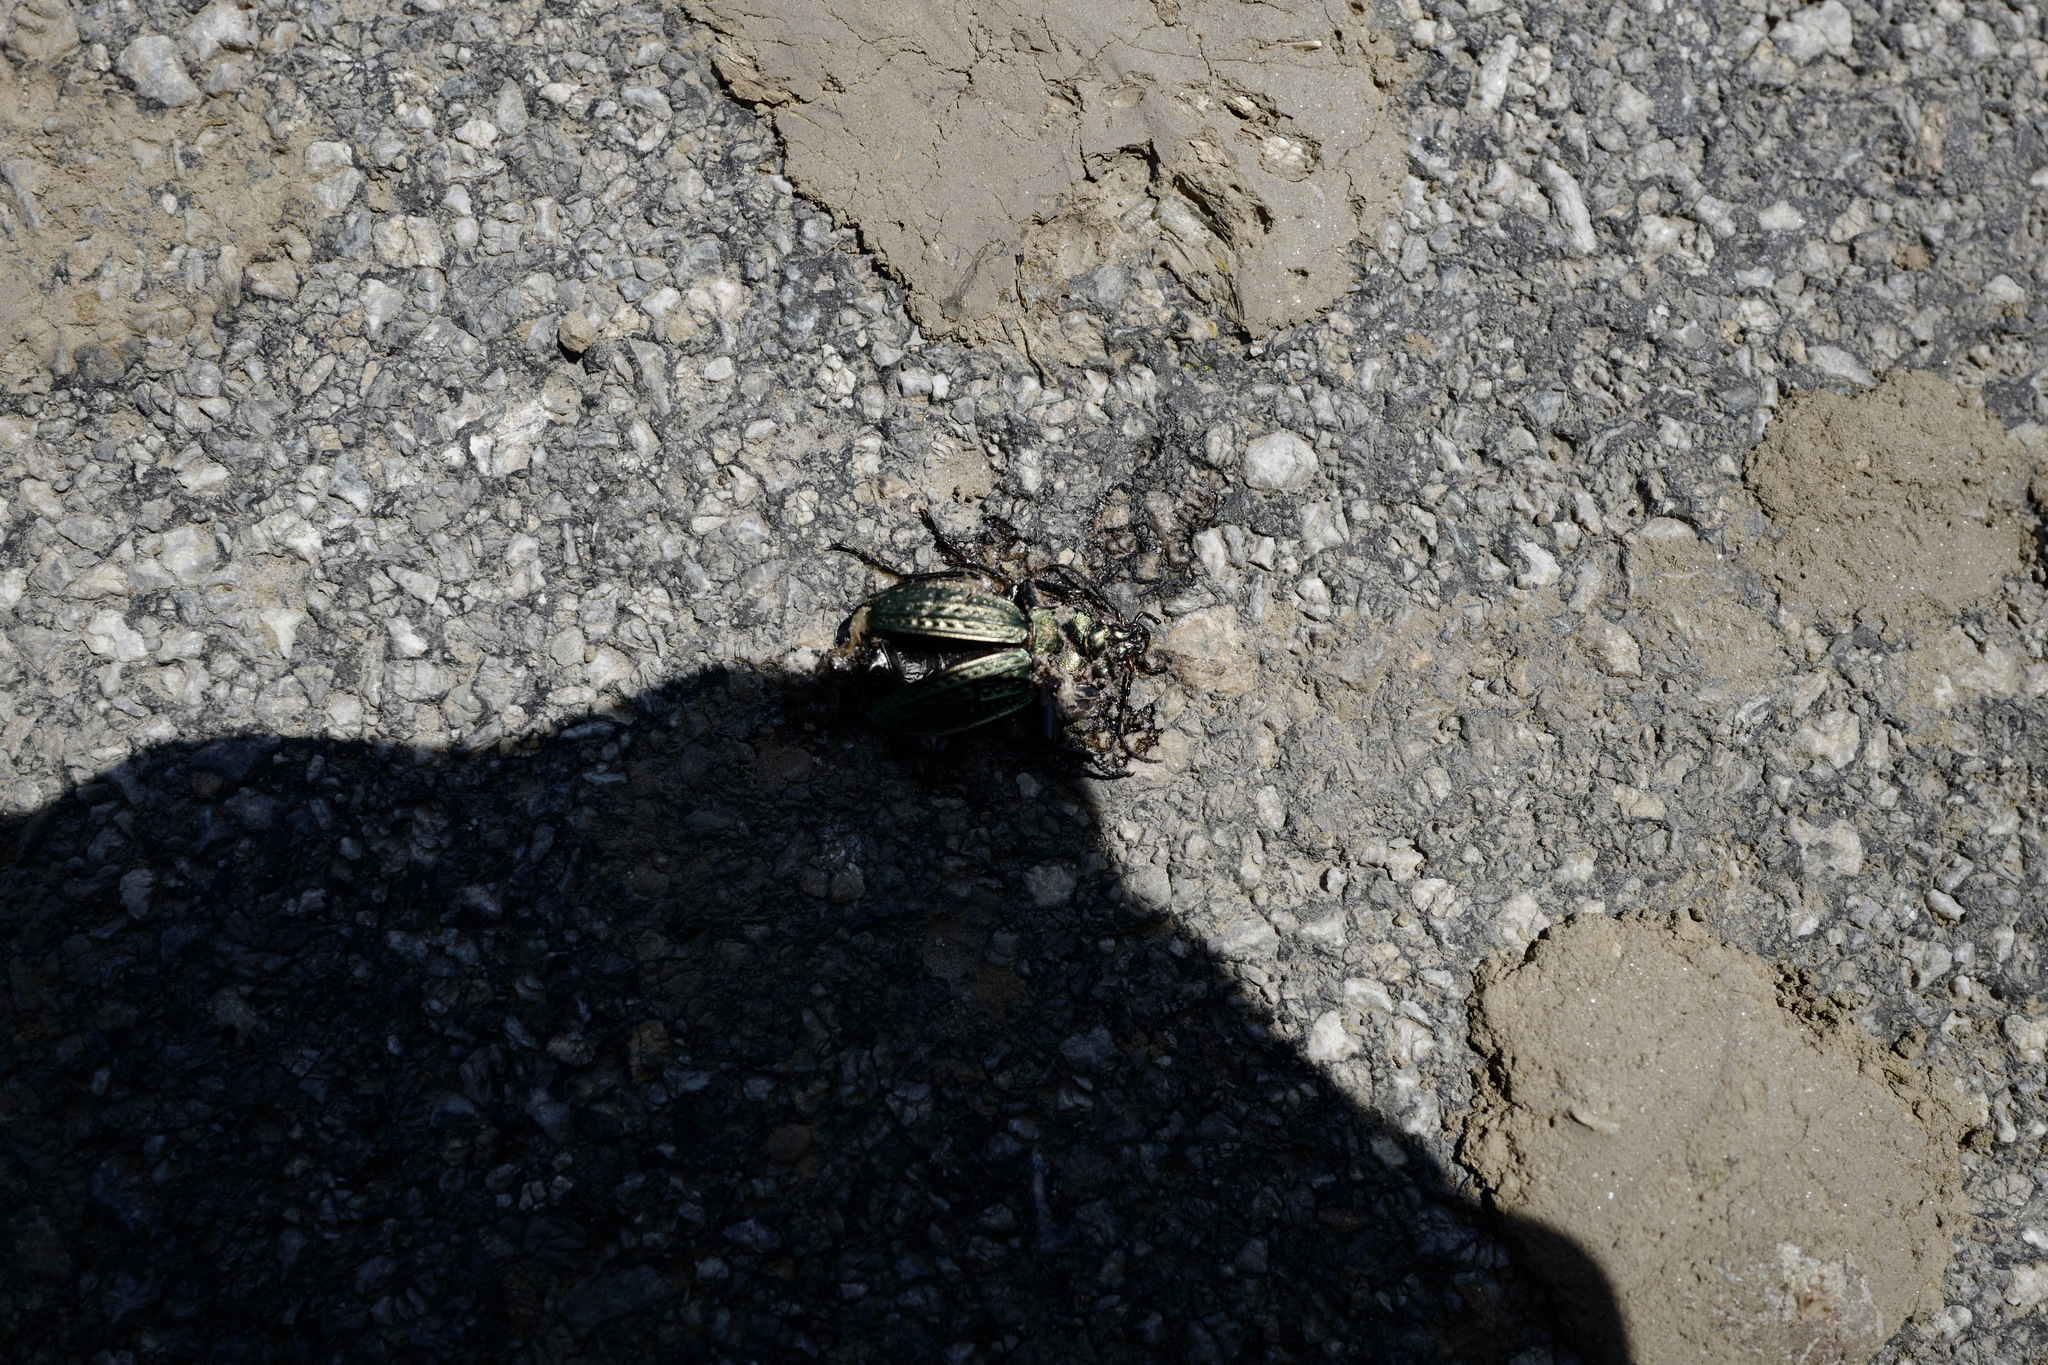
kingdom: Animalia
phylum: Arthropoda
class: Insecta
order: Coleoptera
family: Carabidae
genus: Carabus
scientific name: Carabus cancellatus
